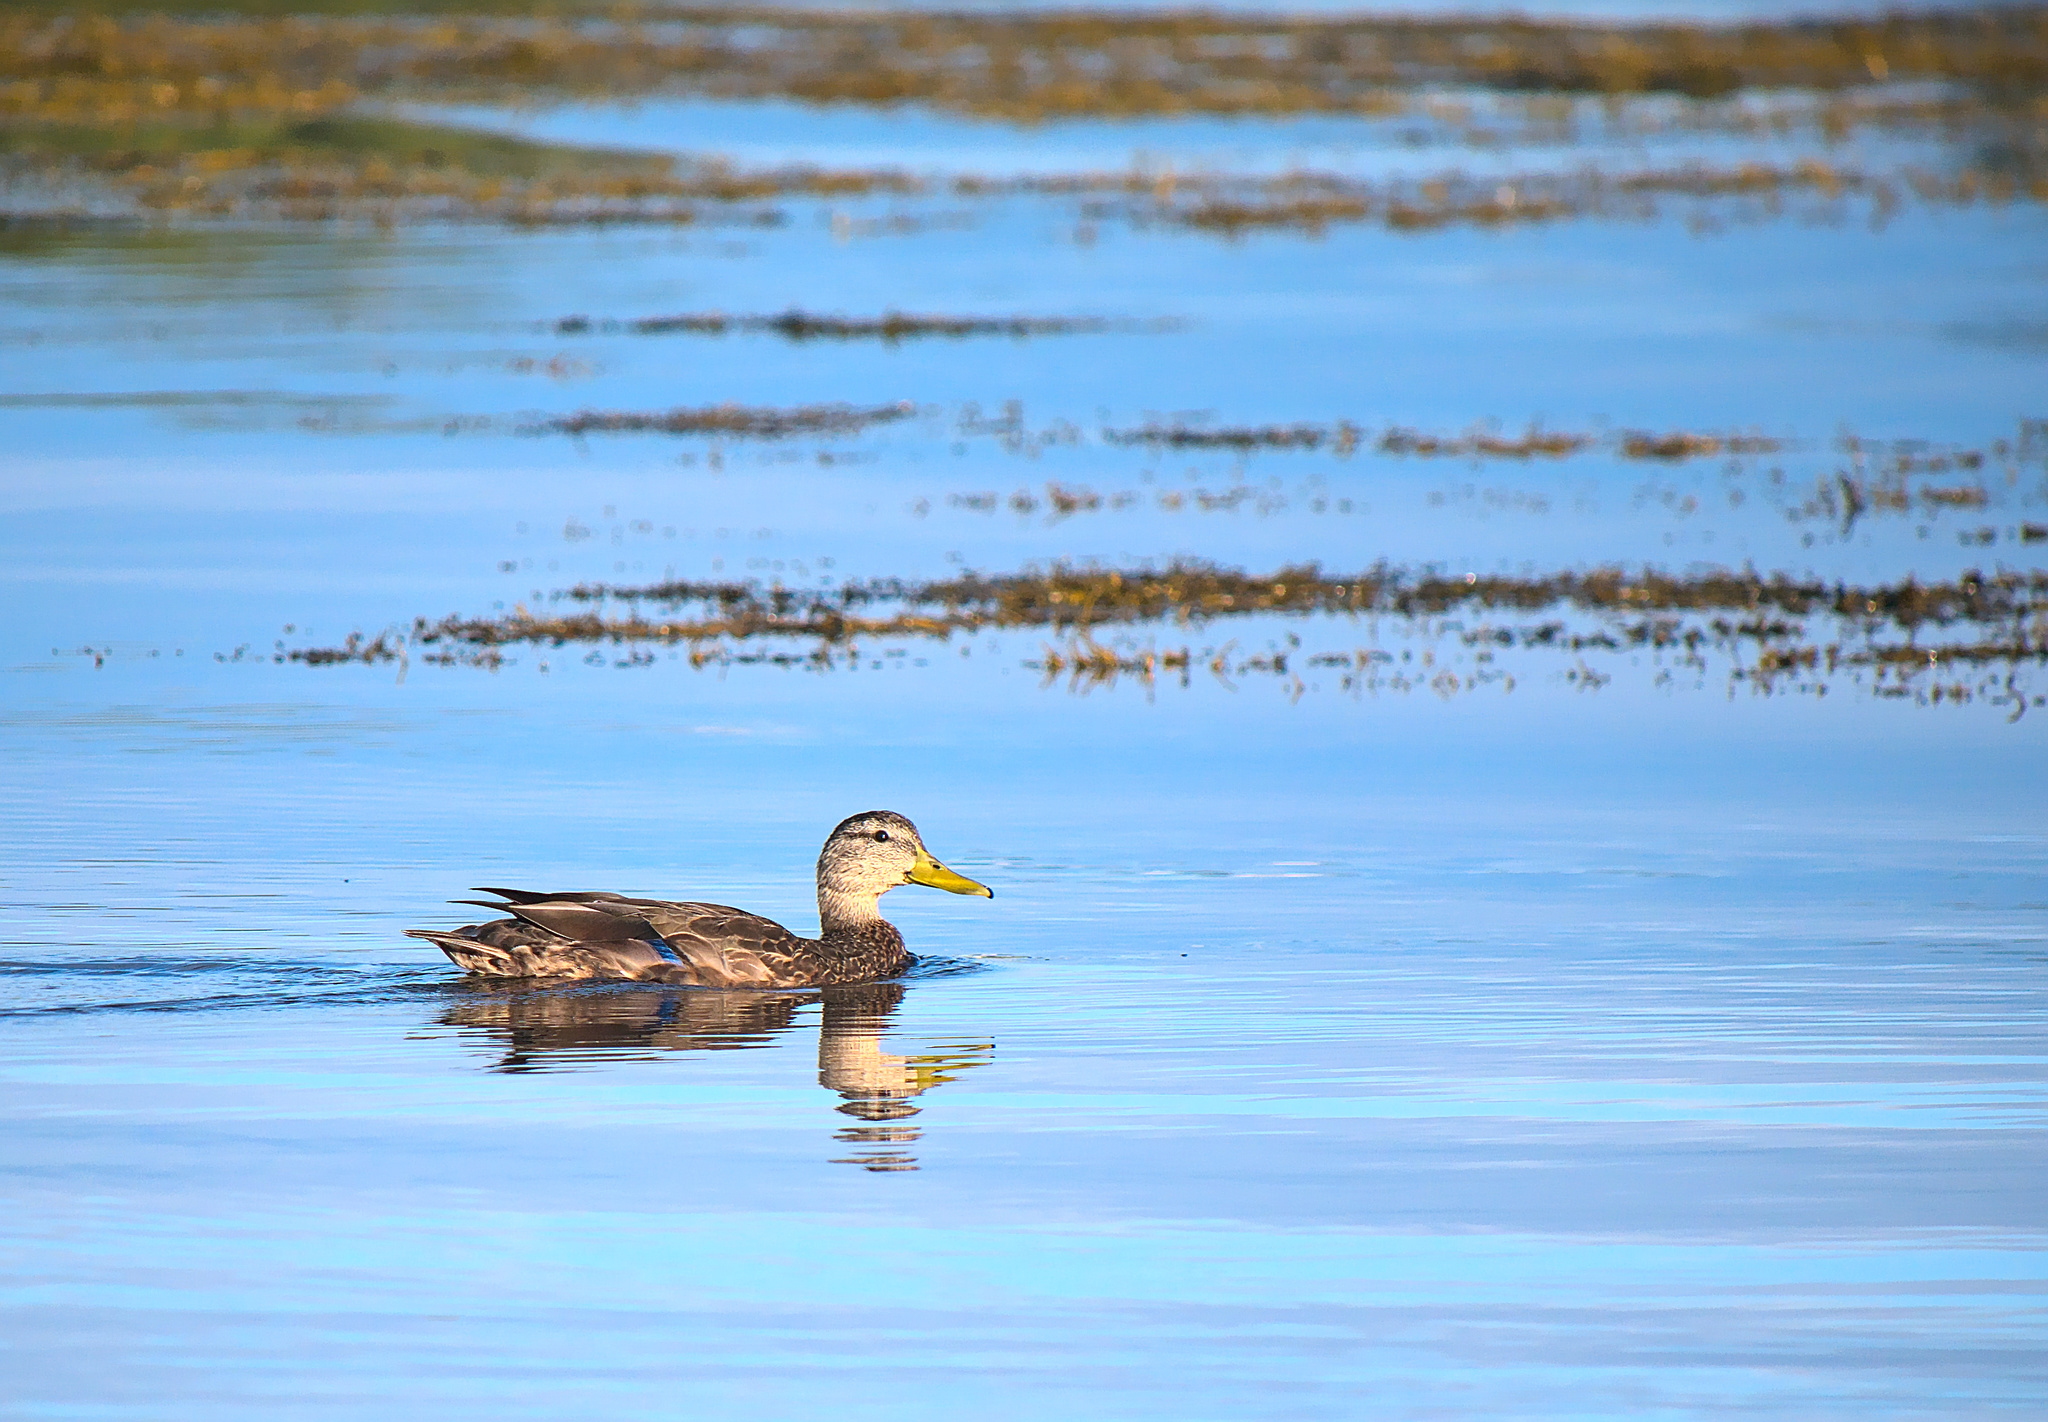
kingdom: Animalia
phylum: Chordata
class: Aves
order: Anseriformes
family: Anatidae
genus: Anas
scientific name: Anas platyrhynchos
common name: Mallard
